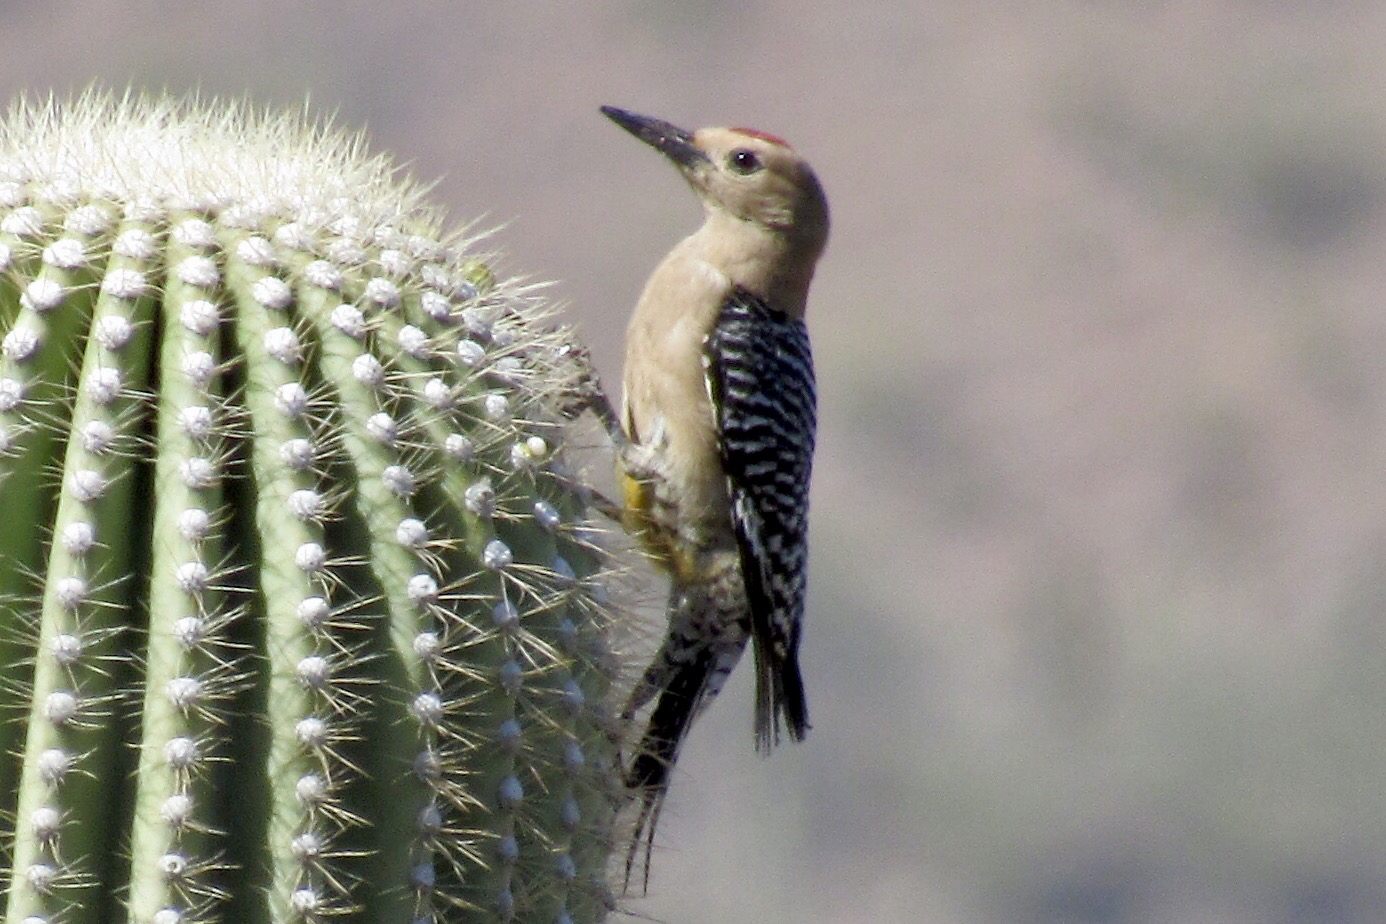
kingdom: Animalia
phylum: Chordata
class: Aves
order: Piciformes
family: Picidae
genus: Melanerpes
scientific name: Melanerpes uropygialis
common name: Gila woodpecker
